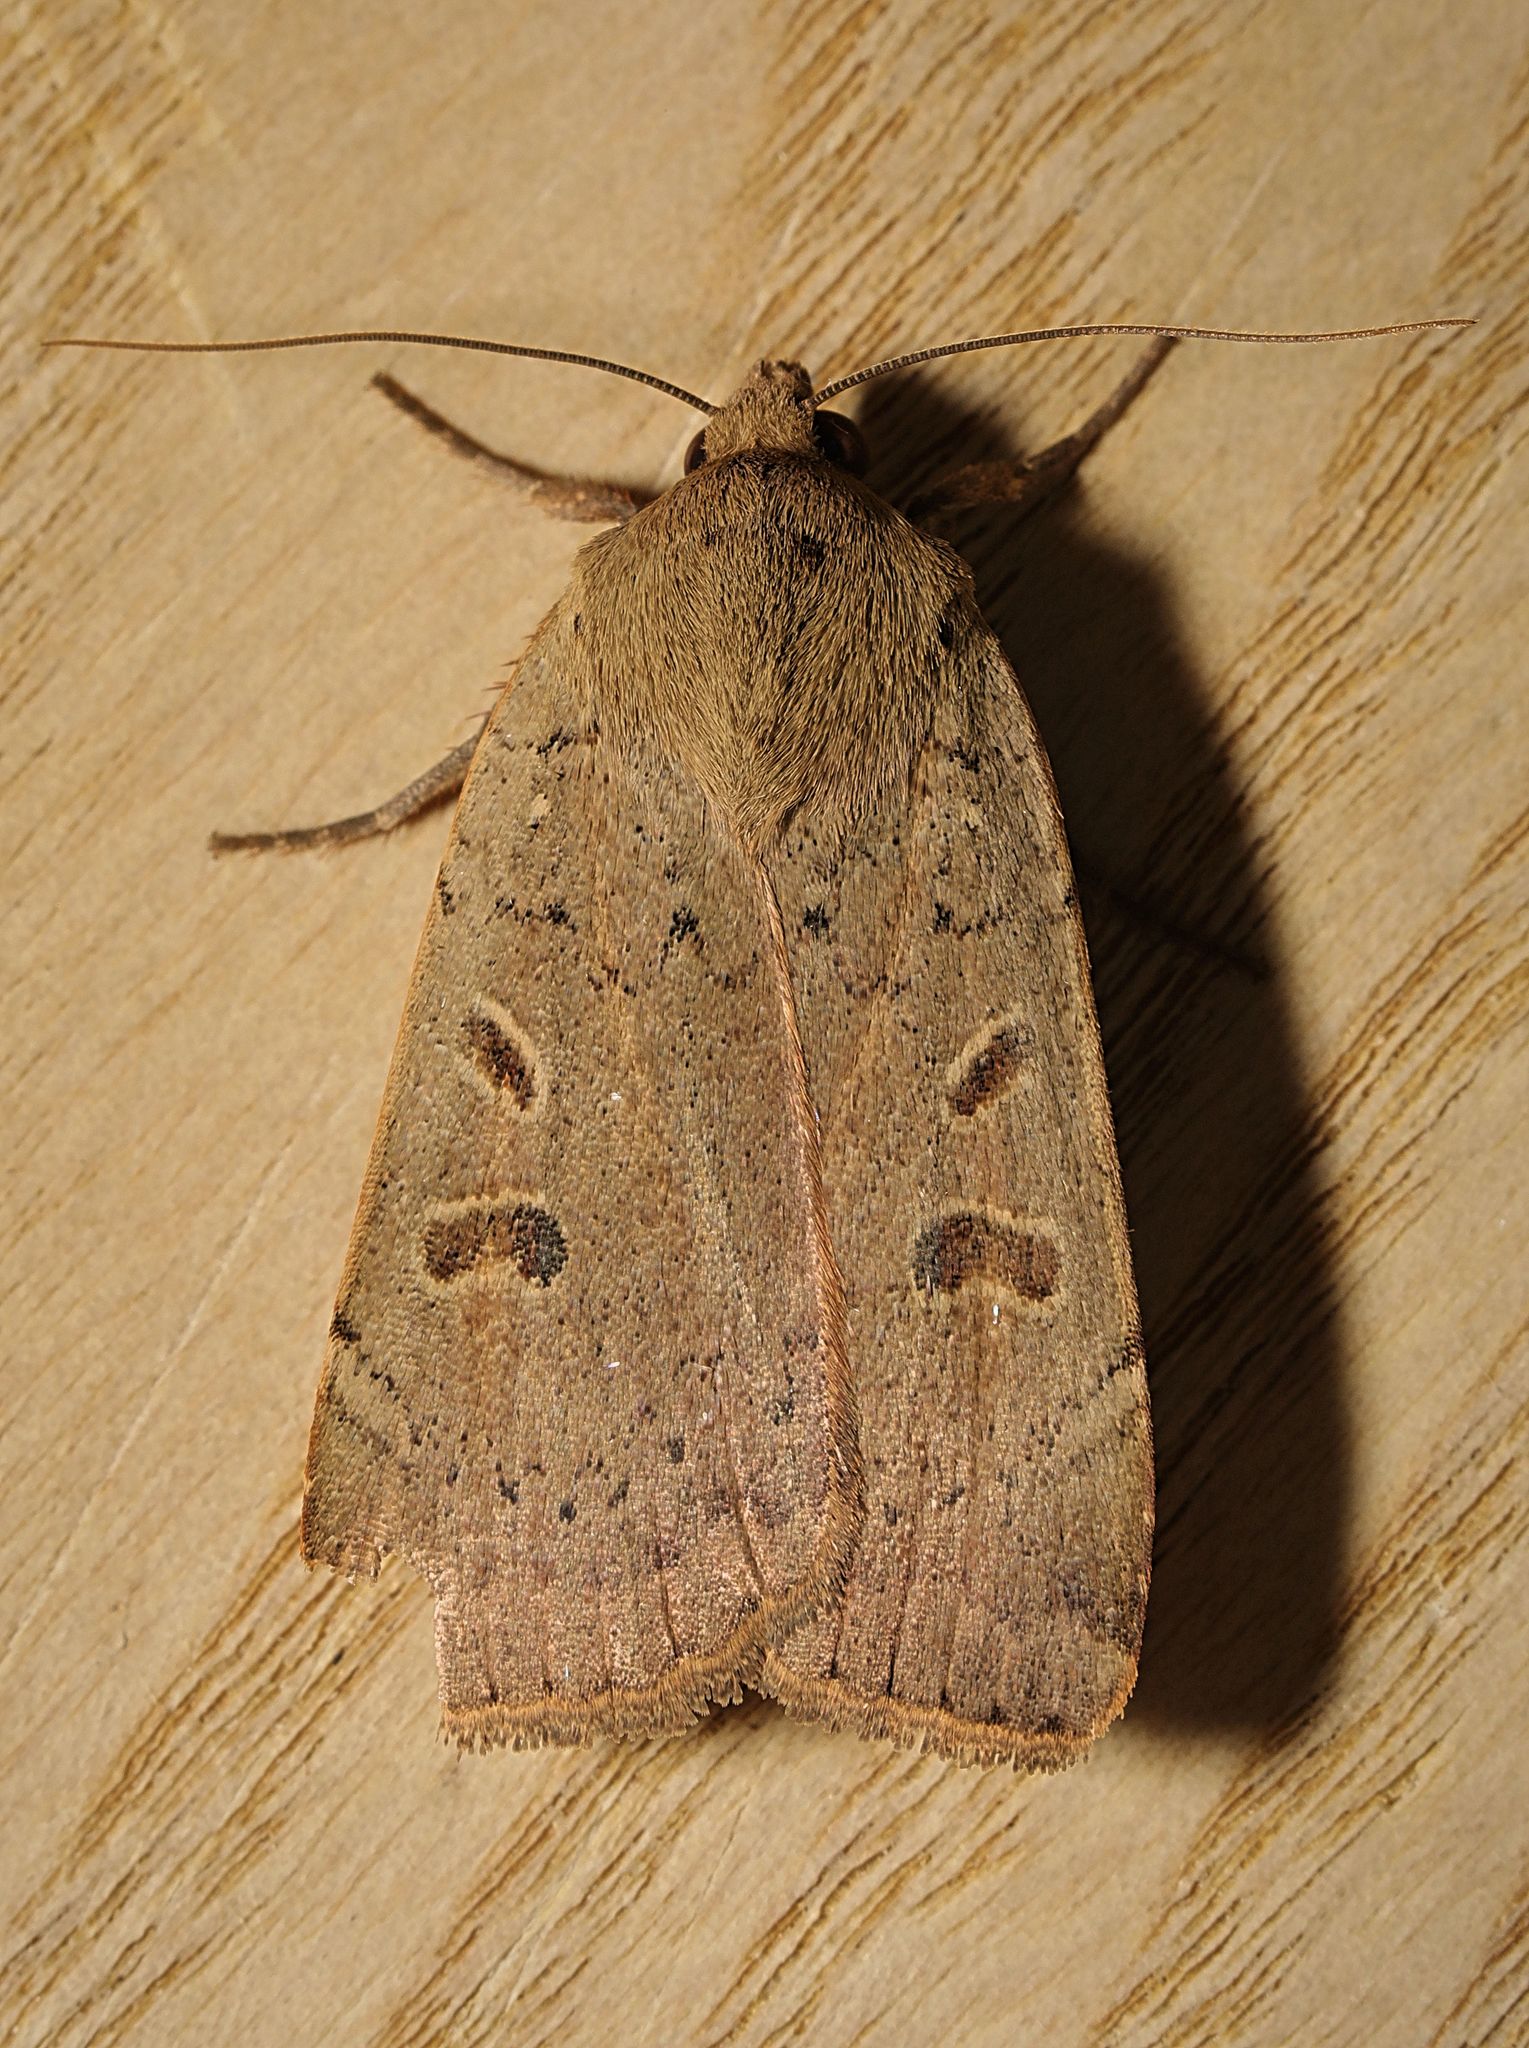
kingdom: Animalia
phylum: Arthropoda
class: Insecta
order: Lepidoptera
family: Noctuidae
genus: Noctua
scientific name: Noctua comes
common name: Lesser yellow underwing
